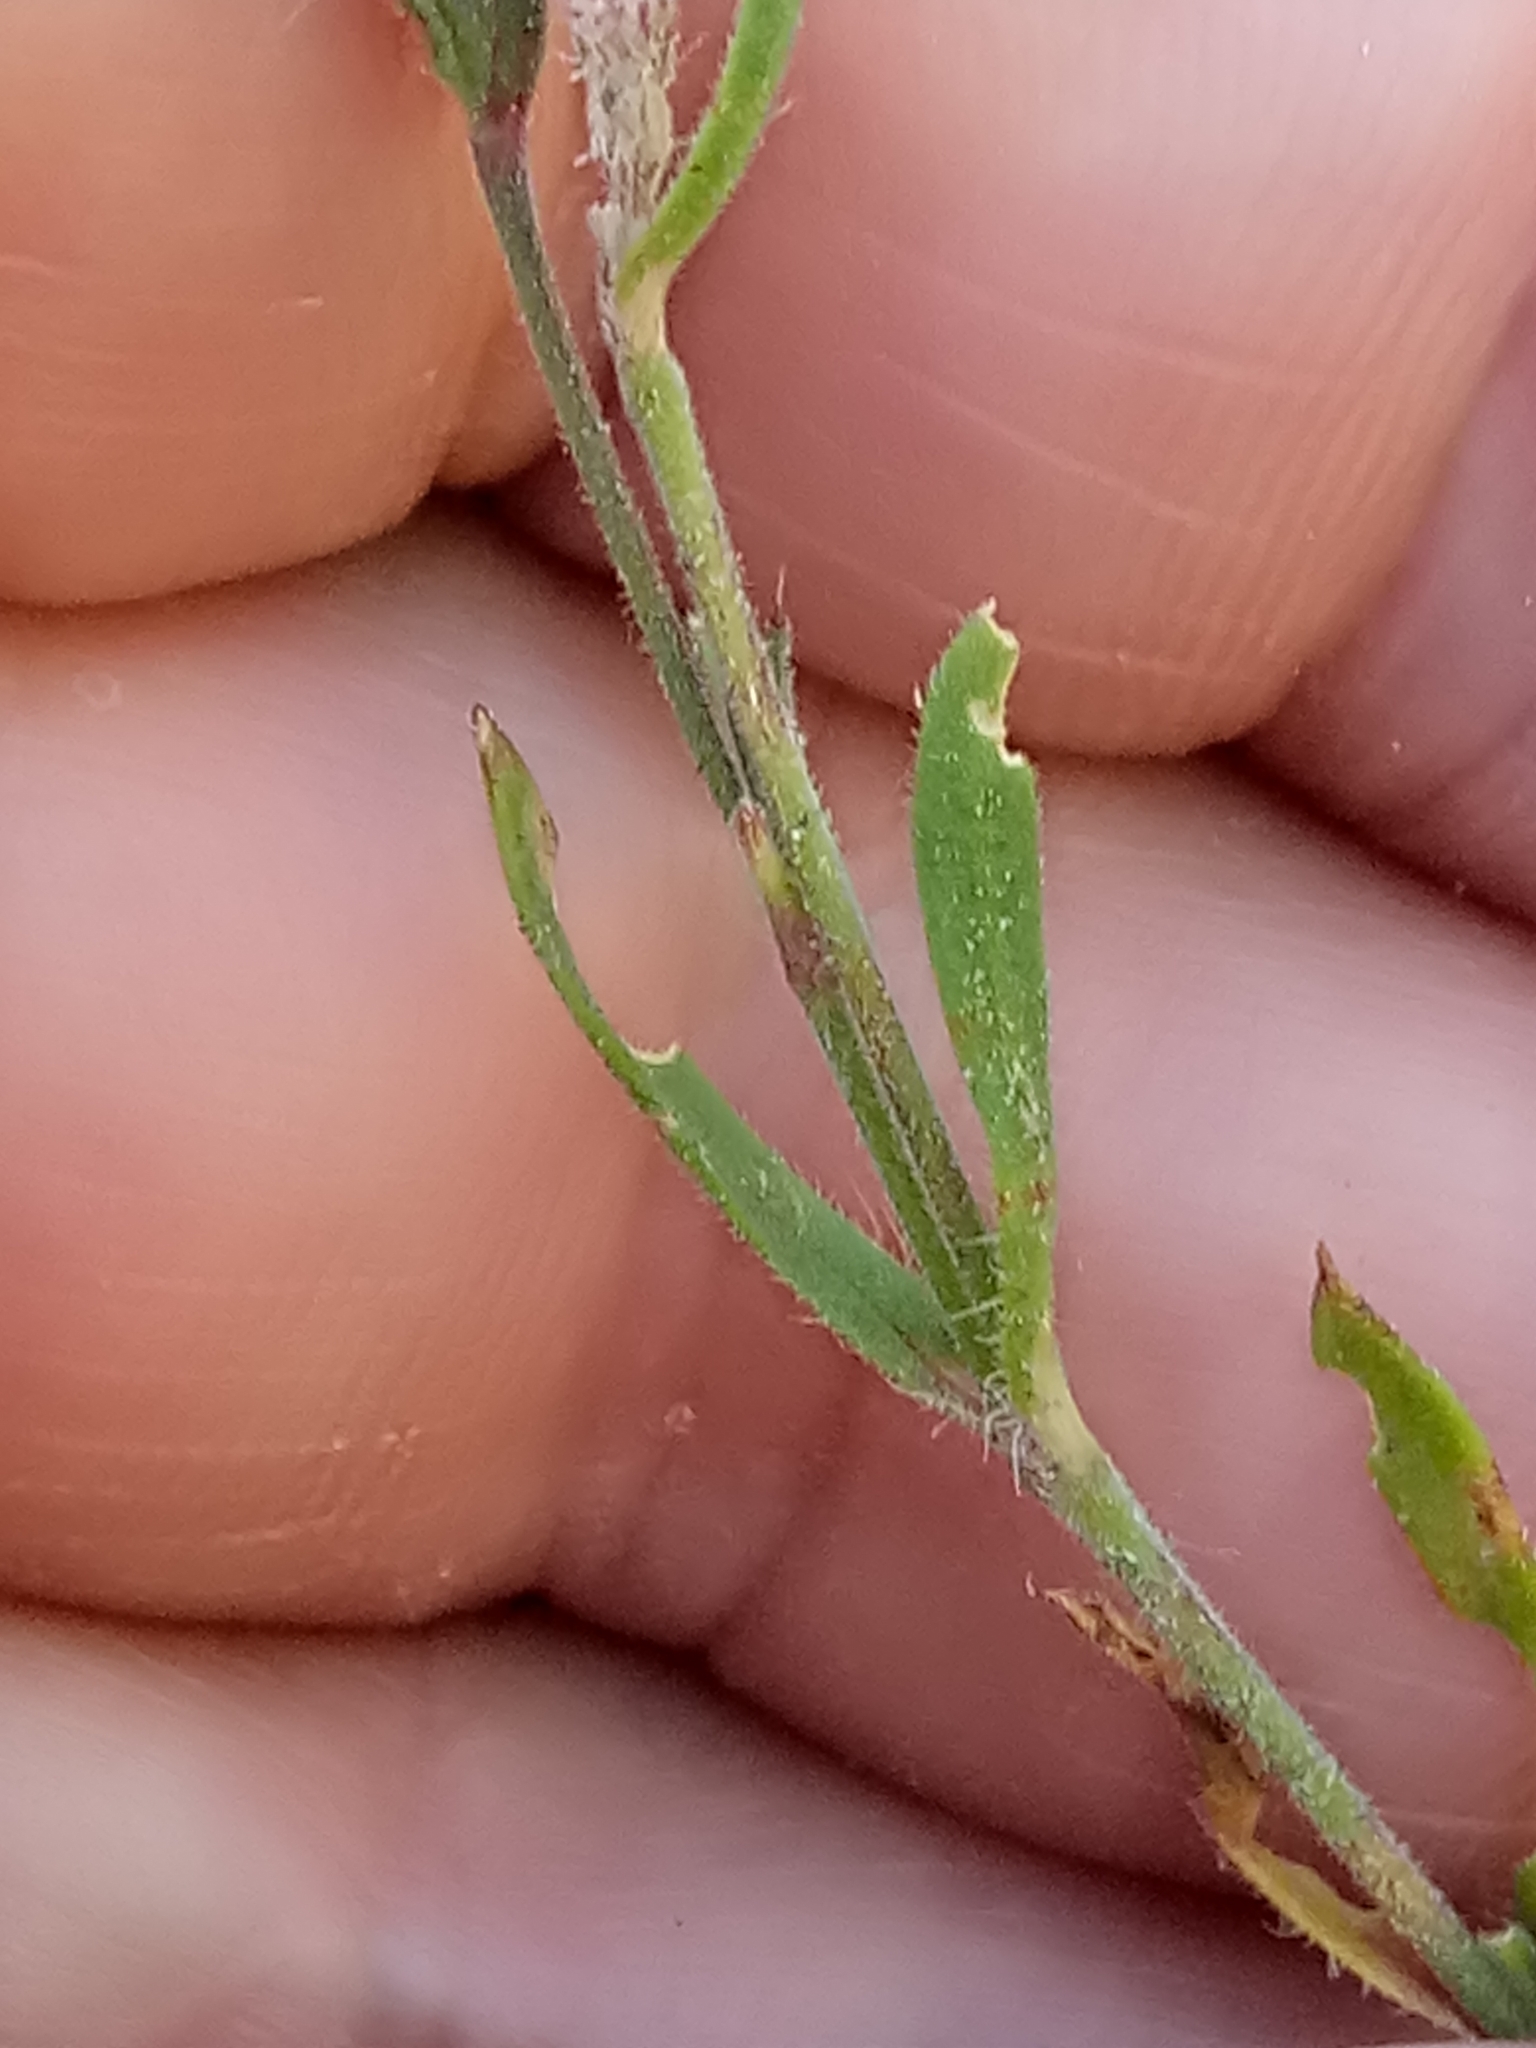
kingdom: Plantae
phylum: Tracheophyta
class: Magnoliopsida
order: Caryophyllales
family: Caryophyllaceae
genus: Silene
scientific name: Silene gallica
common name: Small-flowered catchfly
